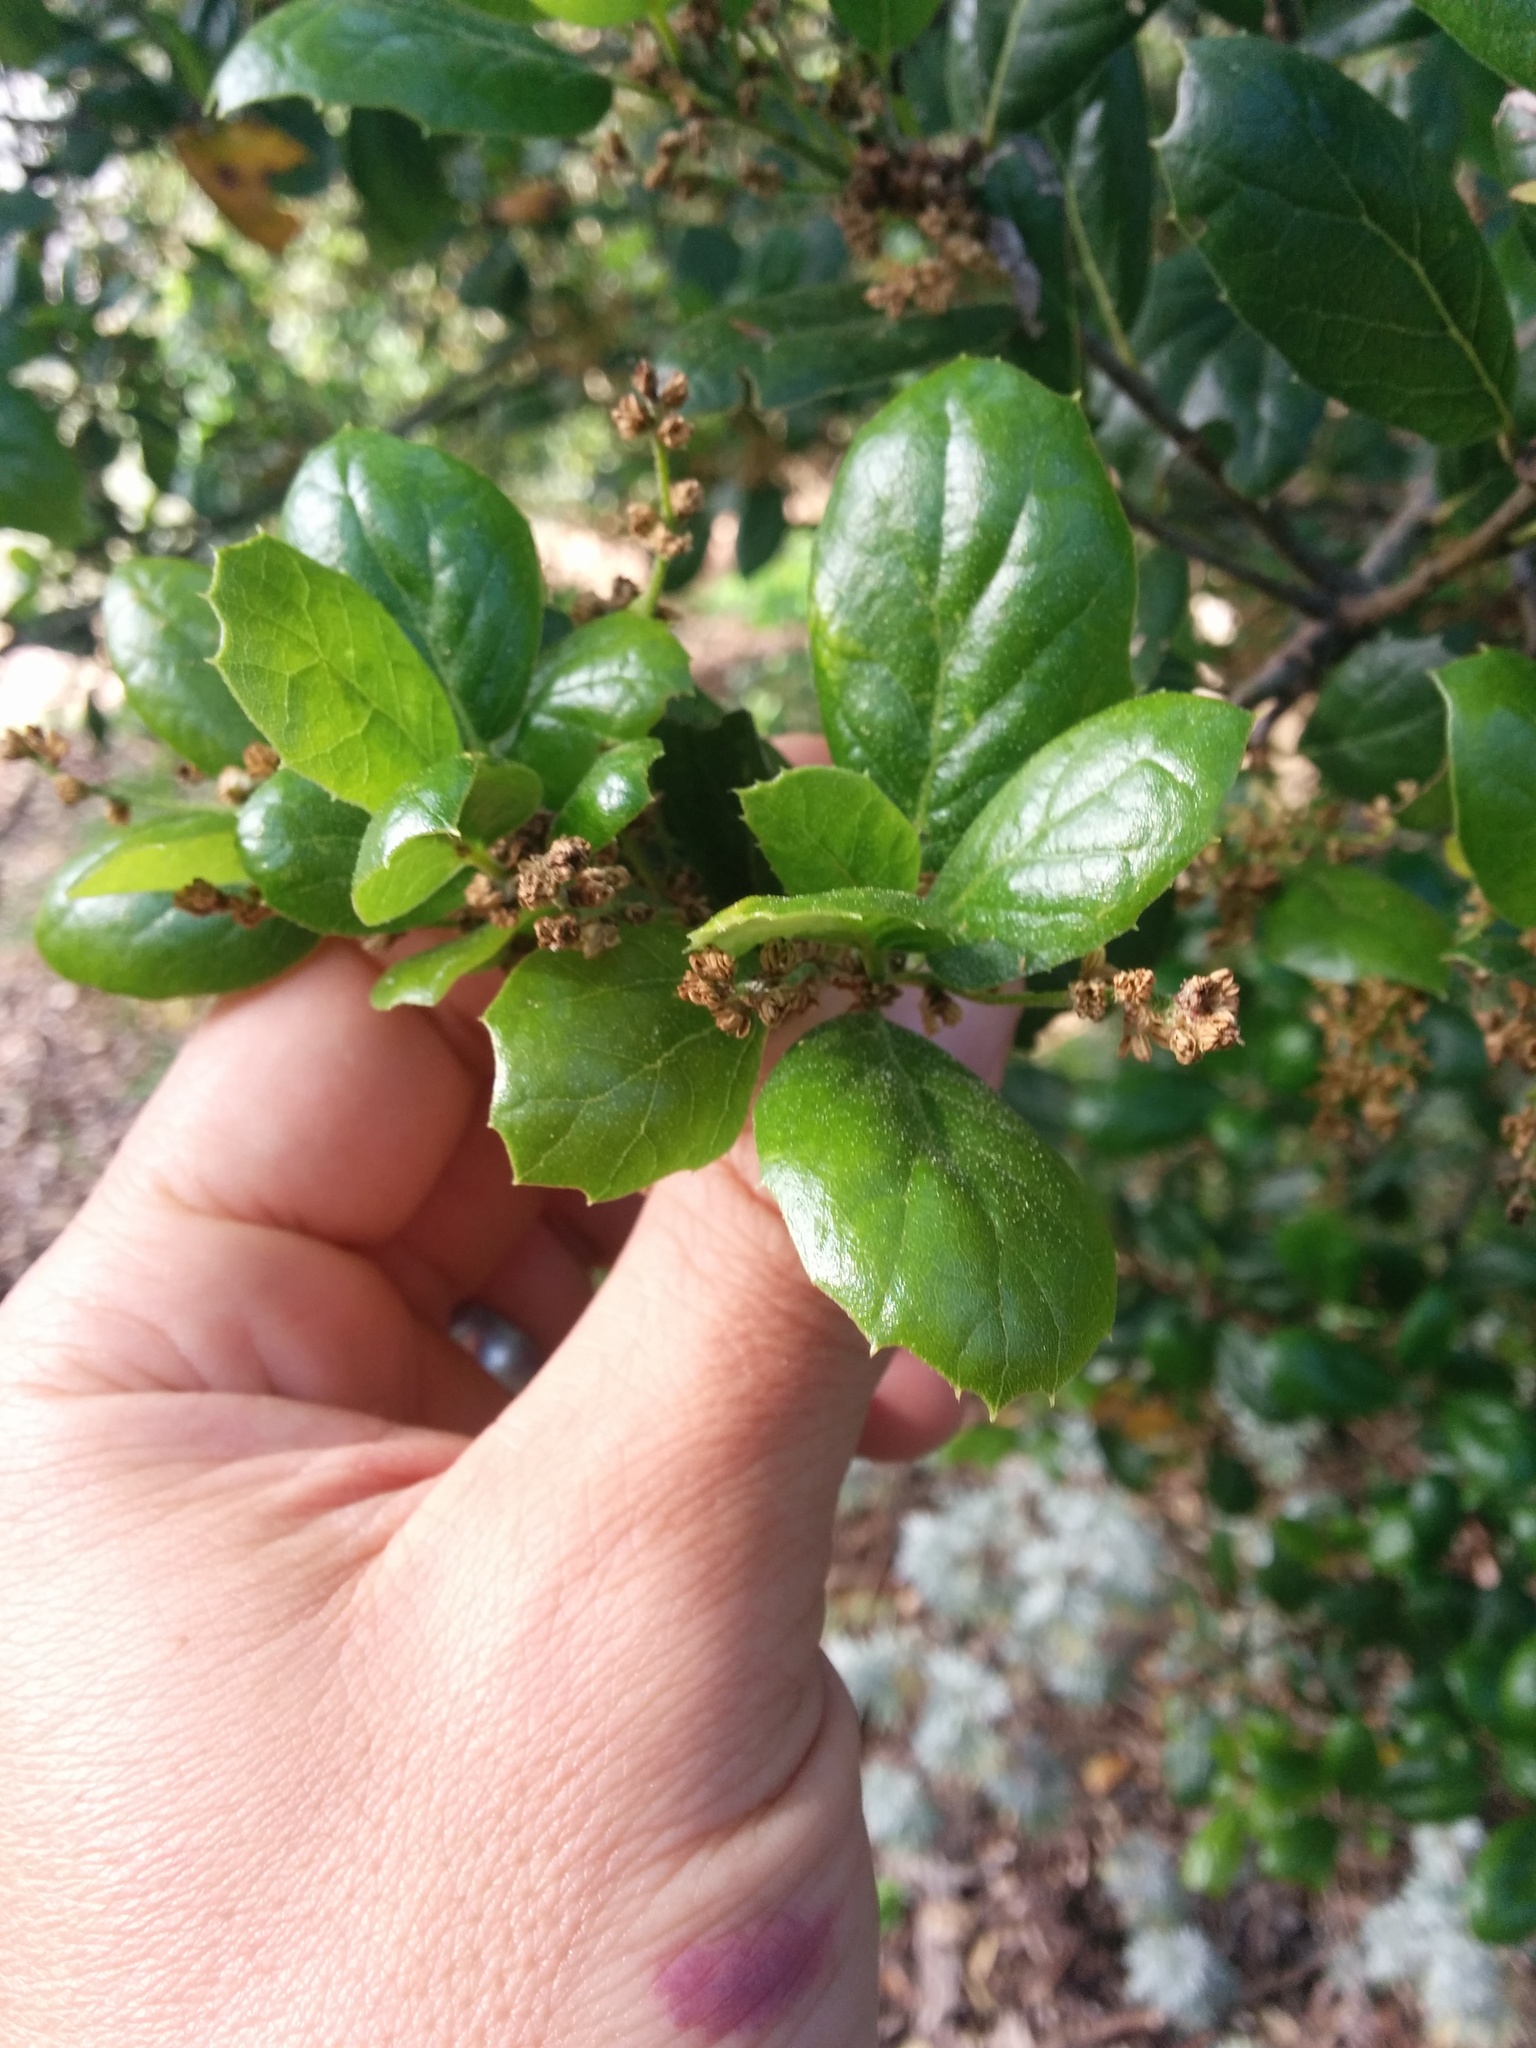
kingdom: Plantae
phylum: Tracheophyta
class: Magnoliopsida
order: Fagales
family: Fagaceae
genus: Quercus
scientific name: Quercus agrifolia
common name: California live oak
